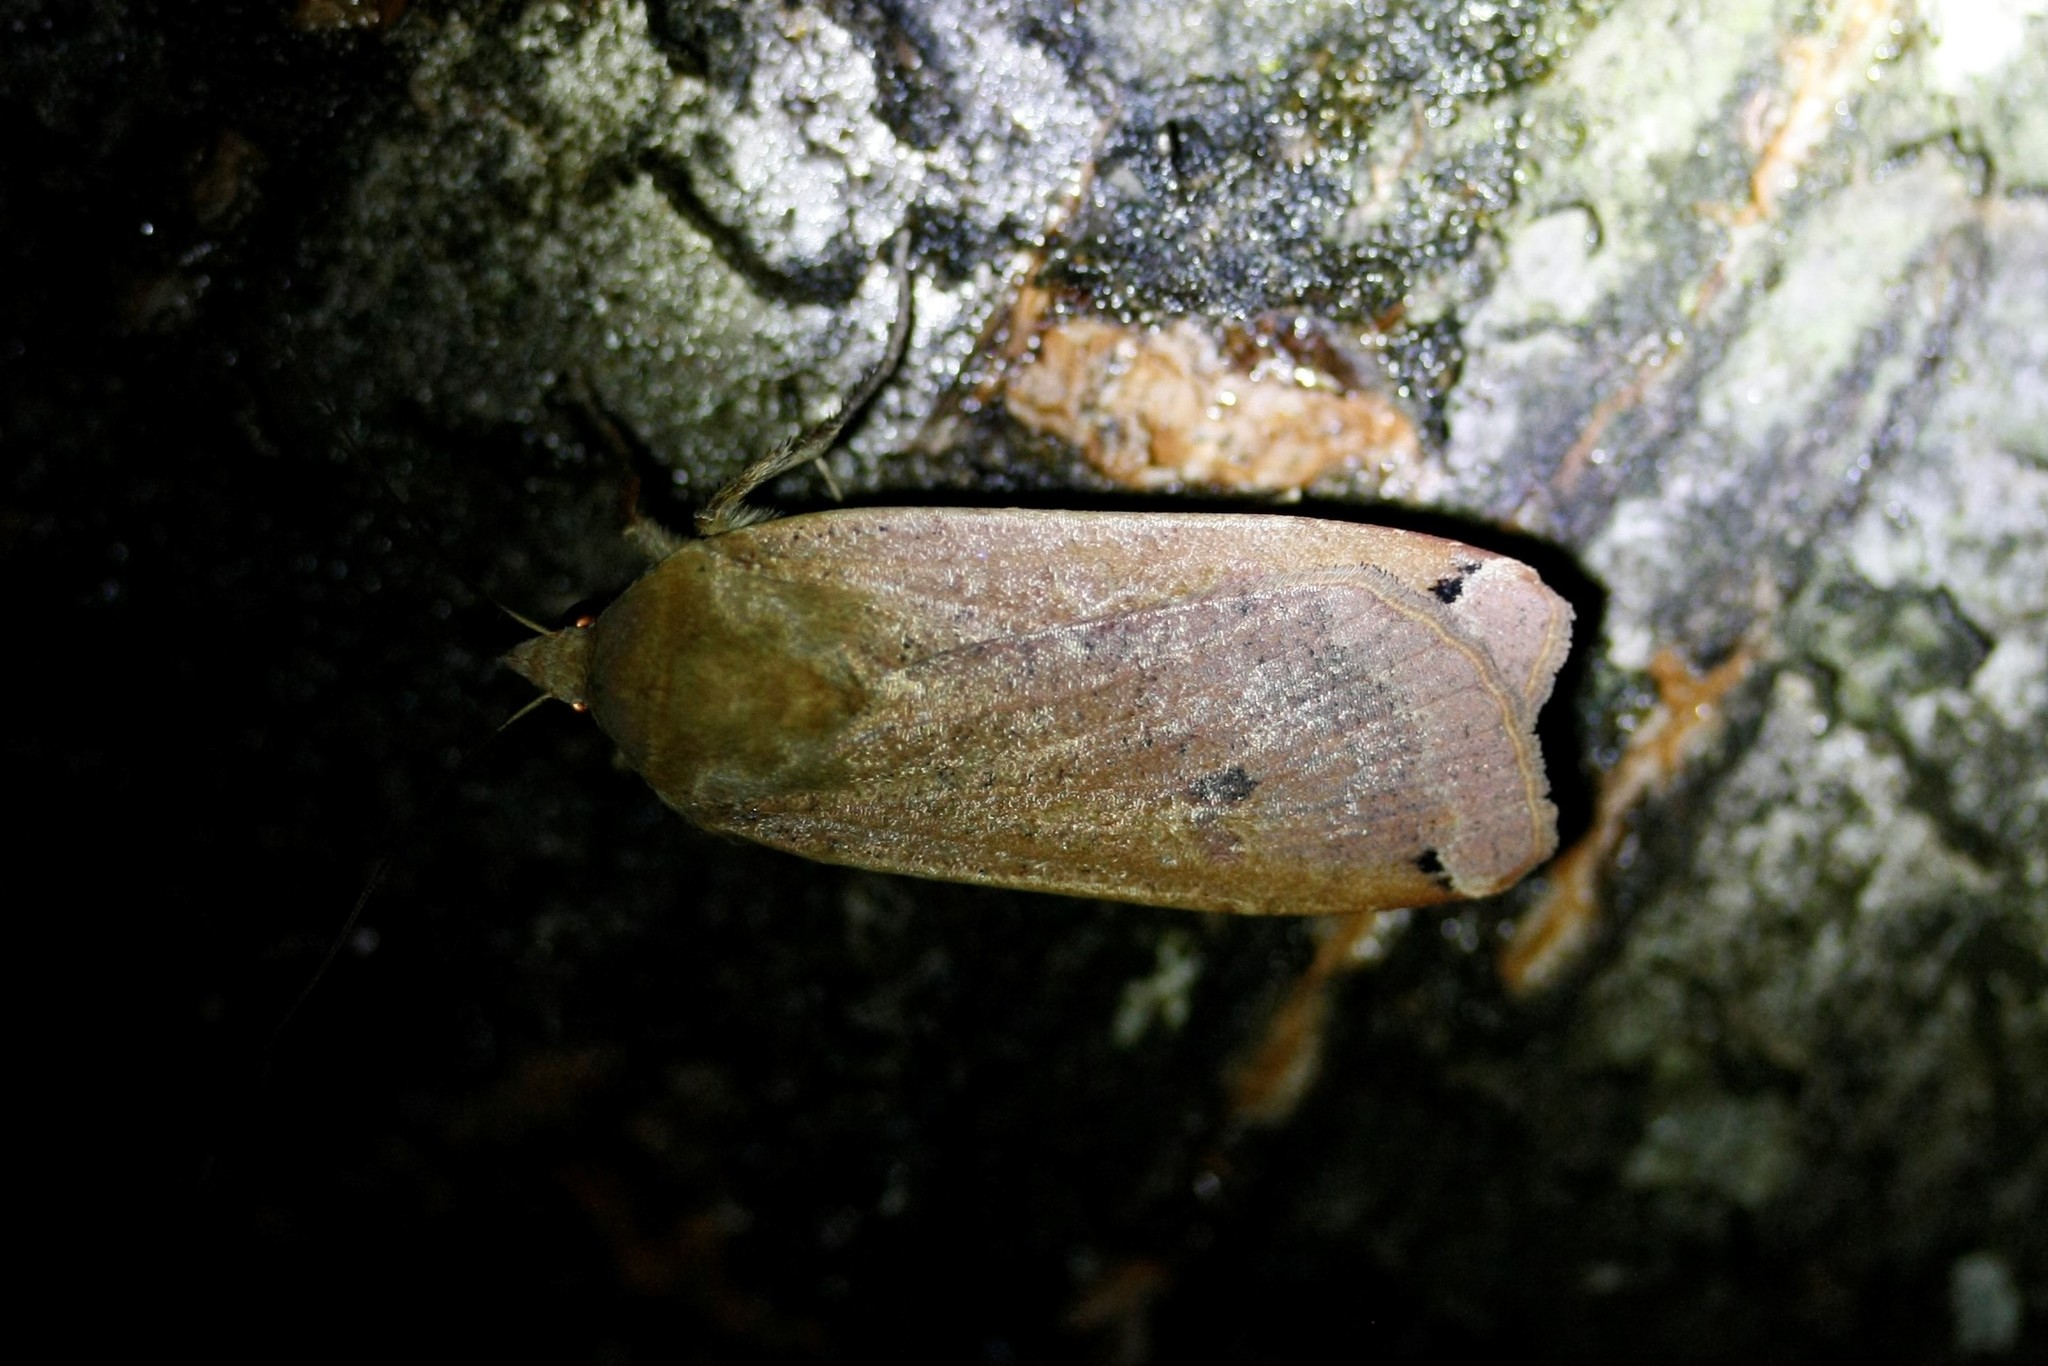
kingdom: Animalia
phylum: Arthropoda
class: Insecta
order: Lepidoptera
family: Noctuidae
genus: Noctua
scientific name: Noctua pronuba
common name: Large yellow underwing
